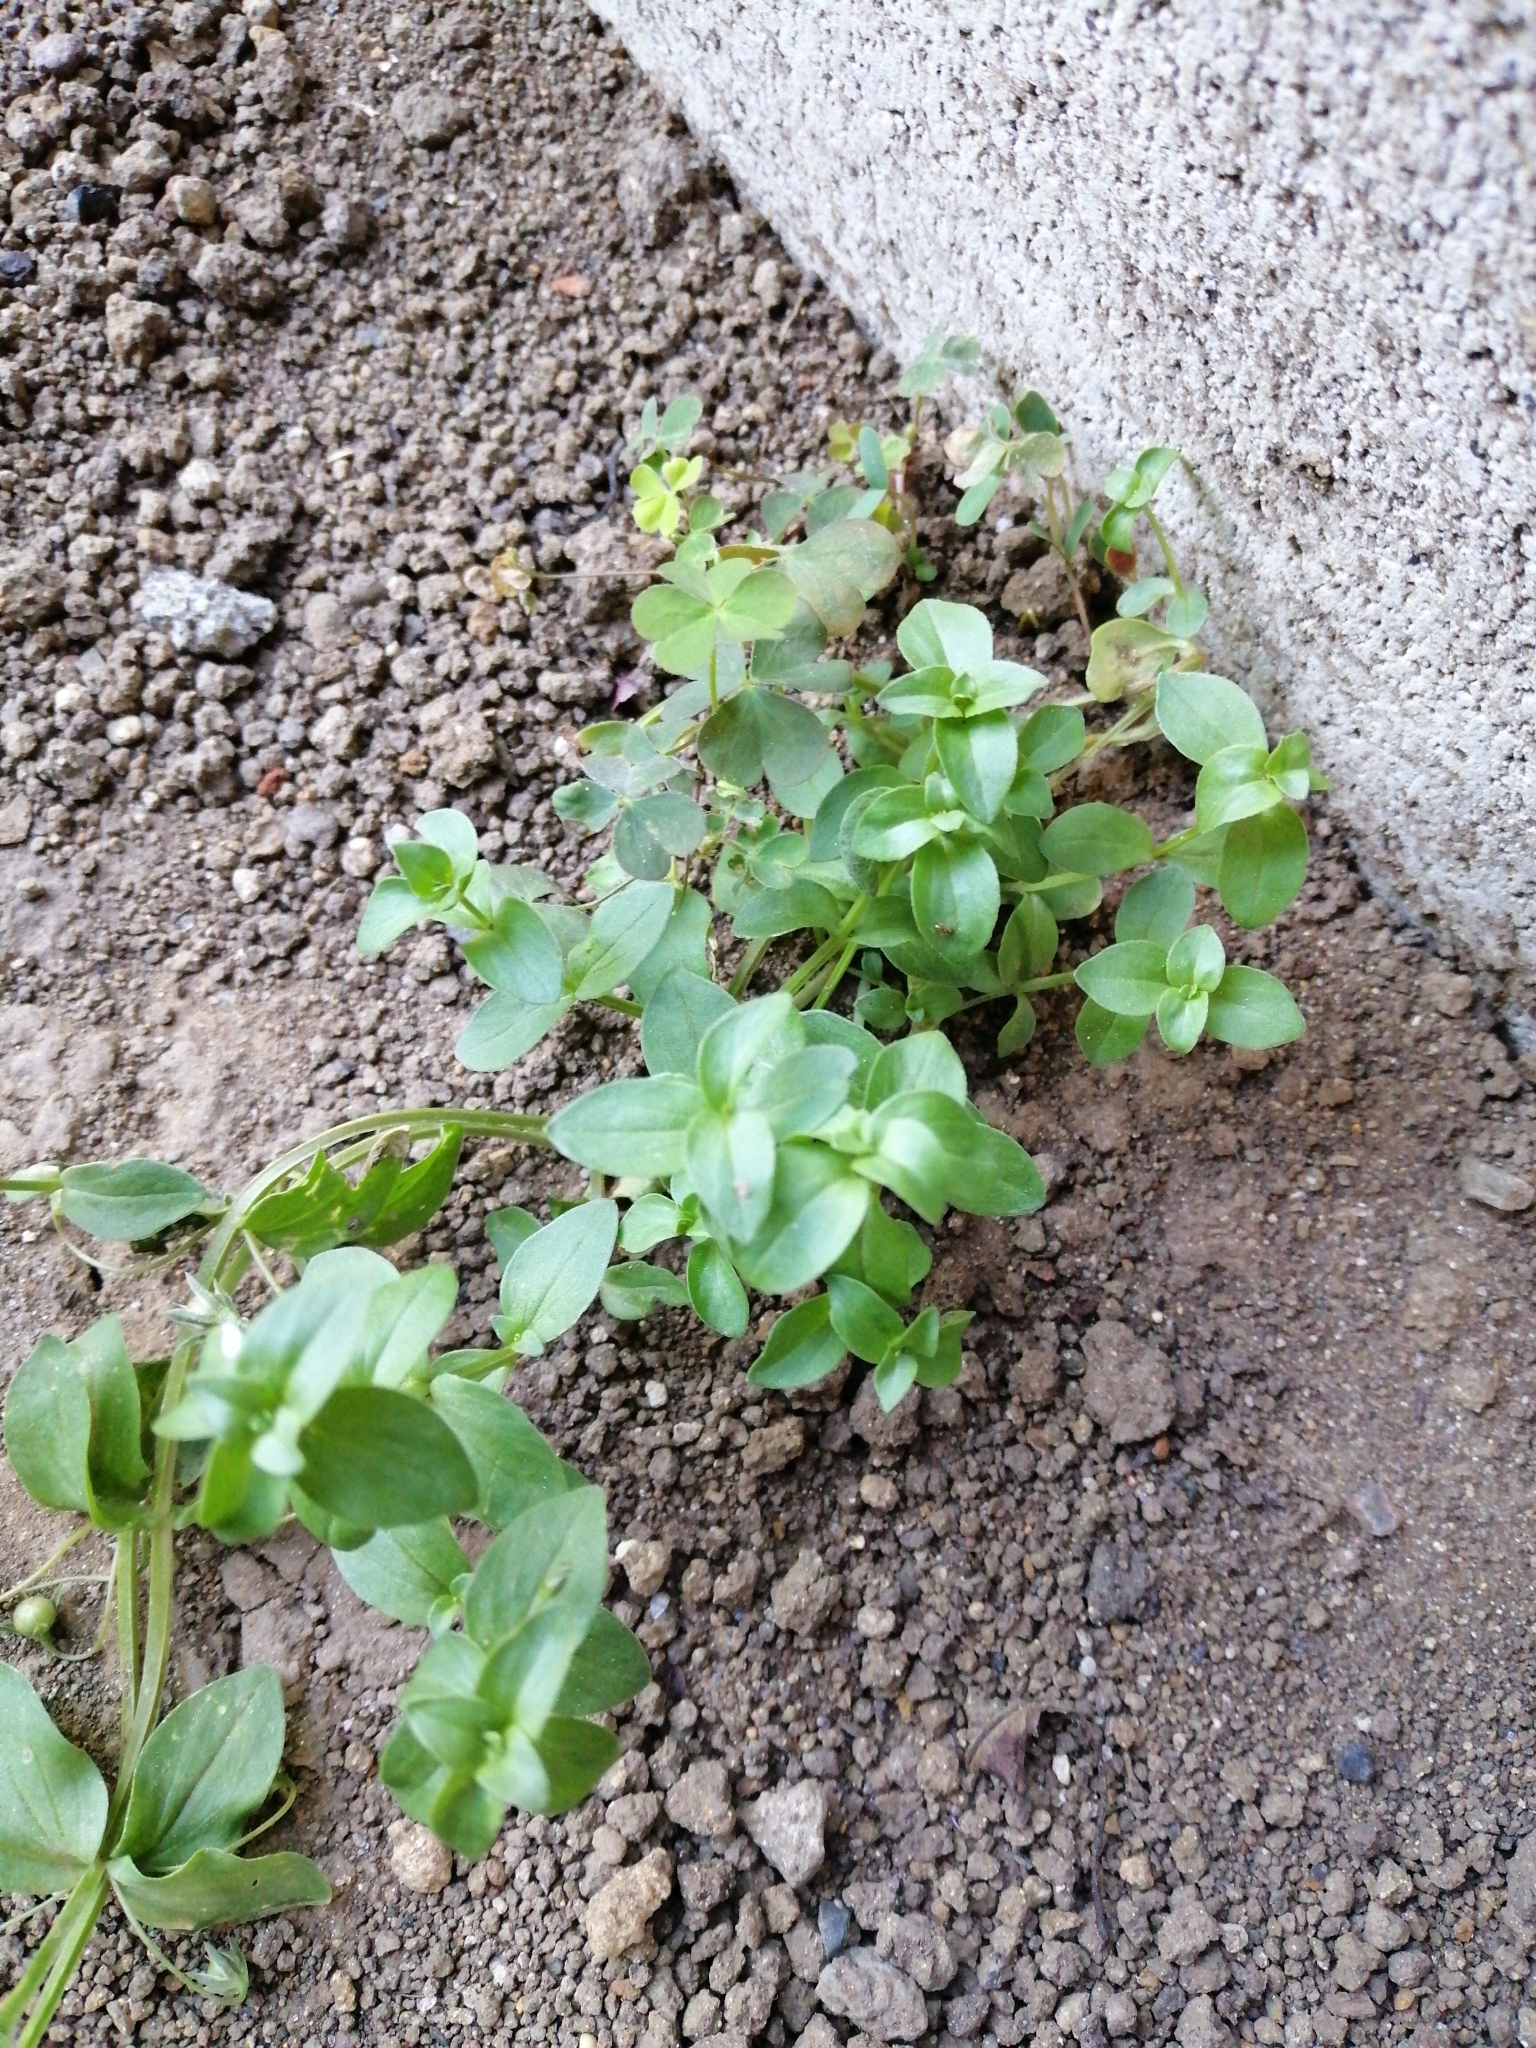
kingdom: Plantae
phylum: Tracheophyta
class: Magnoliopsida
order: Ericales
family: Primulaceae
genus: Lysimachia
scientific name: Lysimachia arvensis
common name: Scarlet pimpernel
